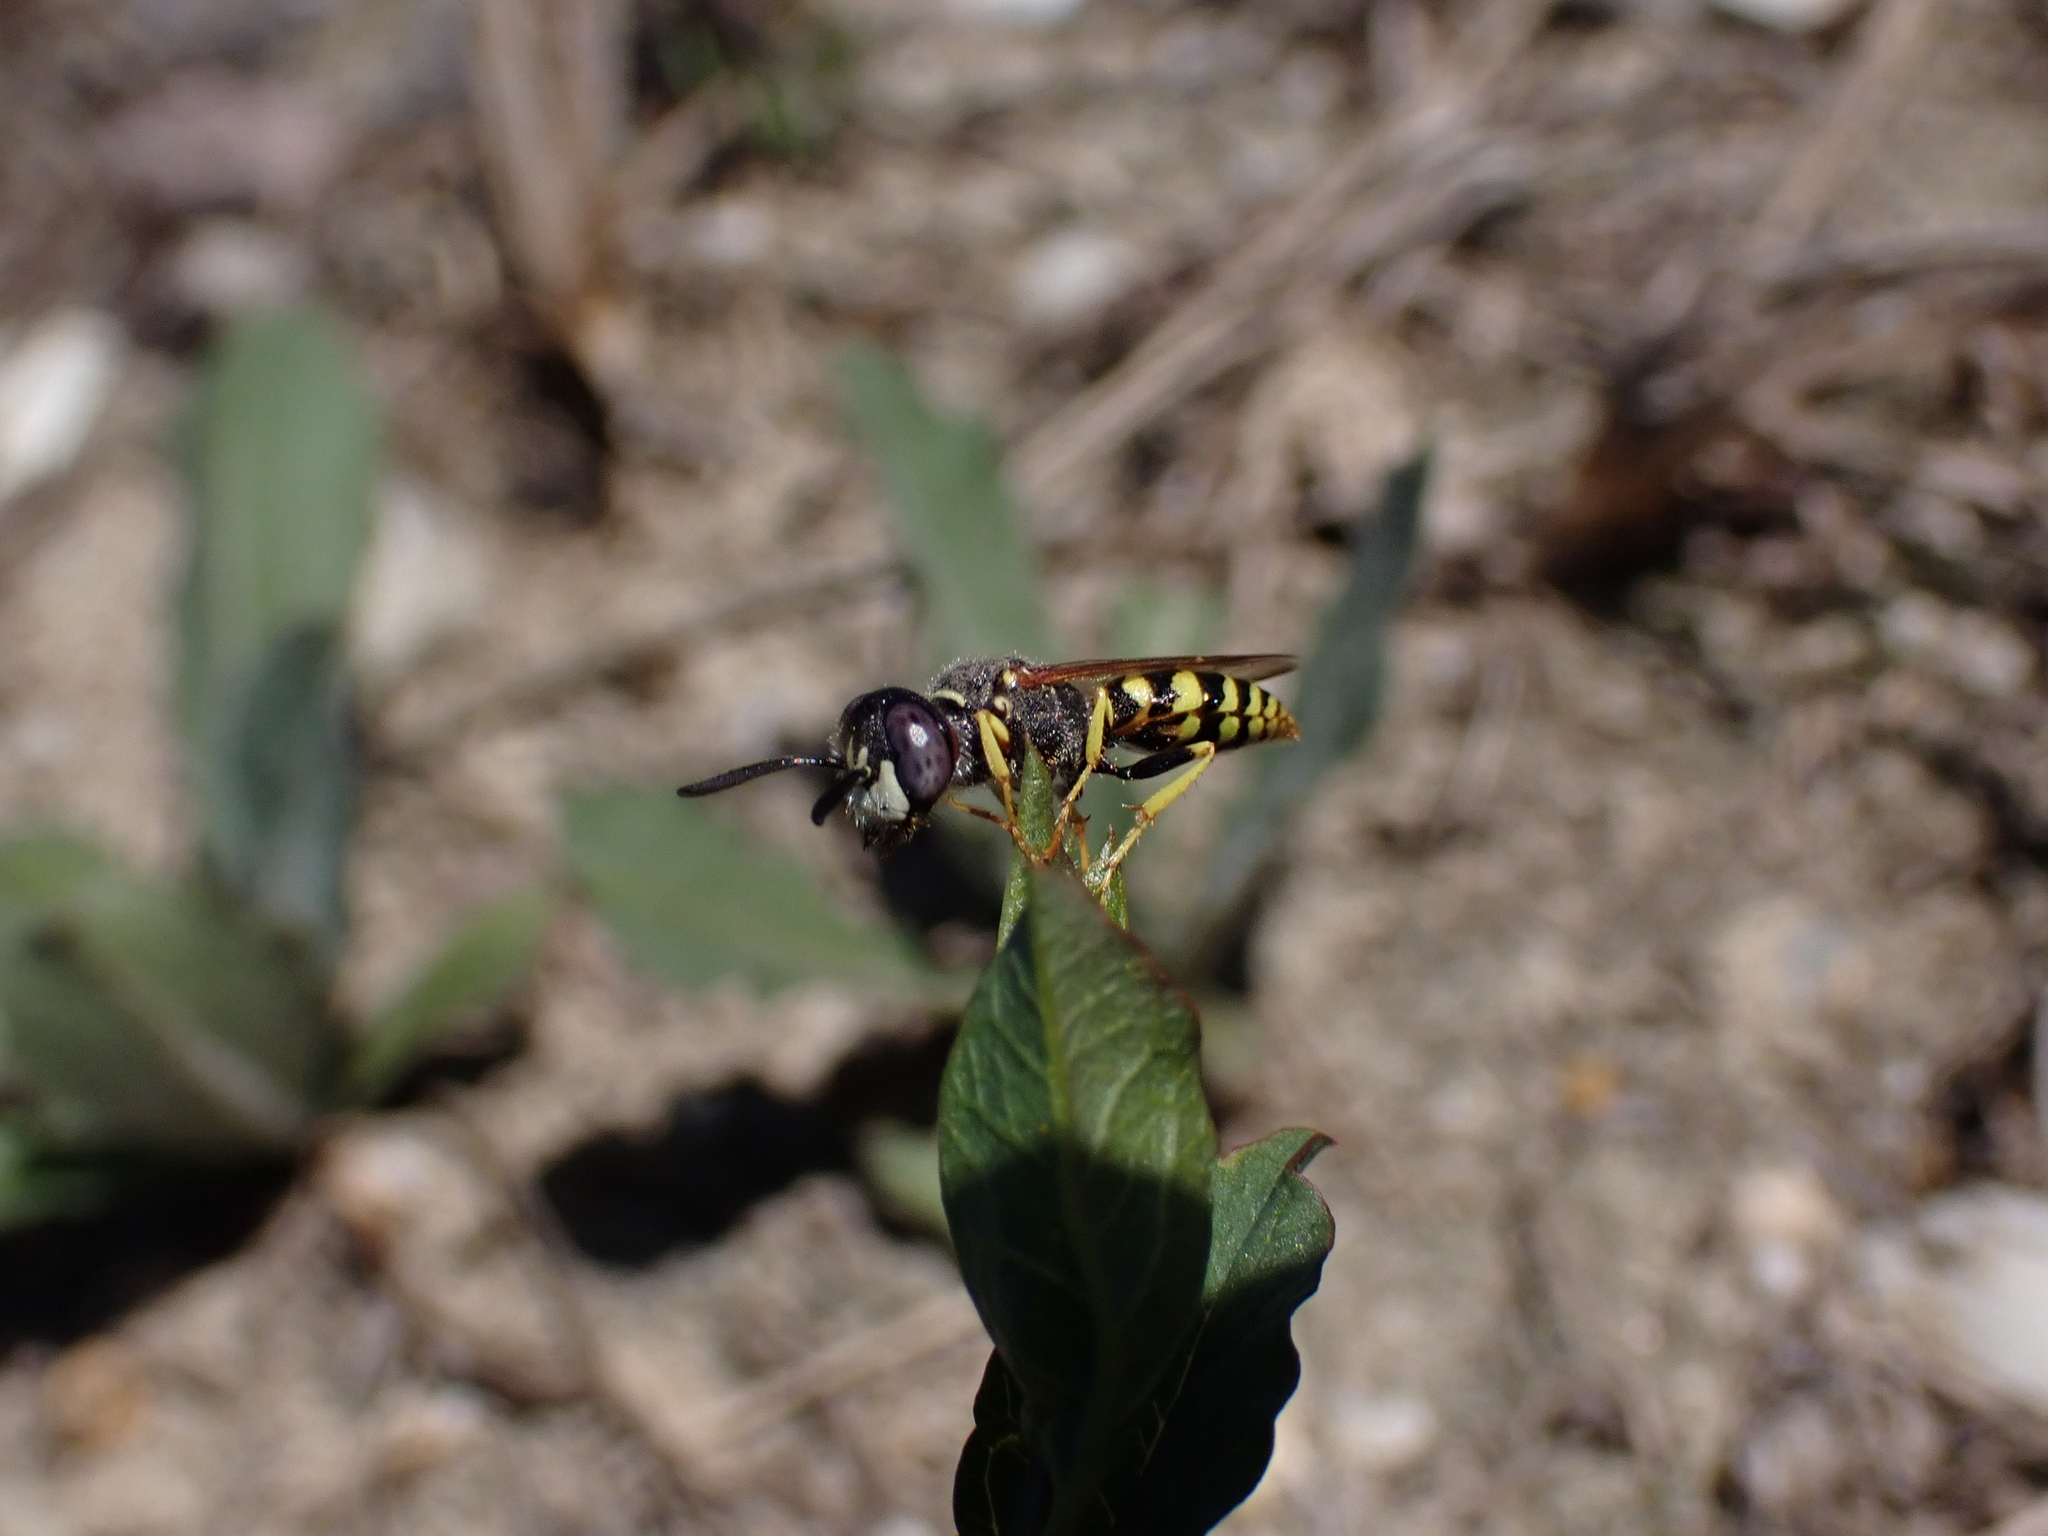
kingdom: Animalia
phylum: Arthropoda
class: Insecta
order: Hymenoptera
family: Crabronidae
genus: Philanthus
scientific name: Philanthus triangulum
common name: Bee wolf
